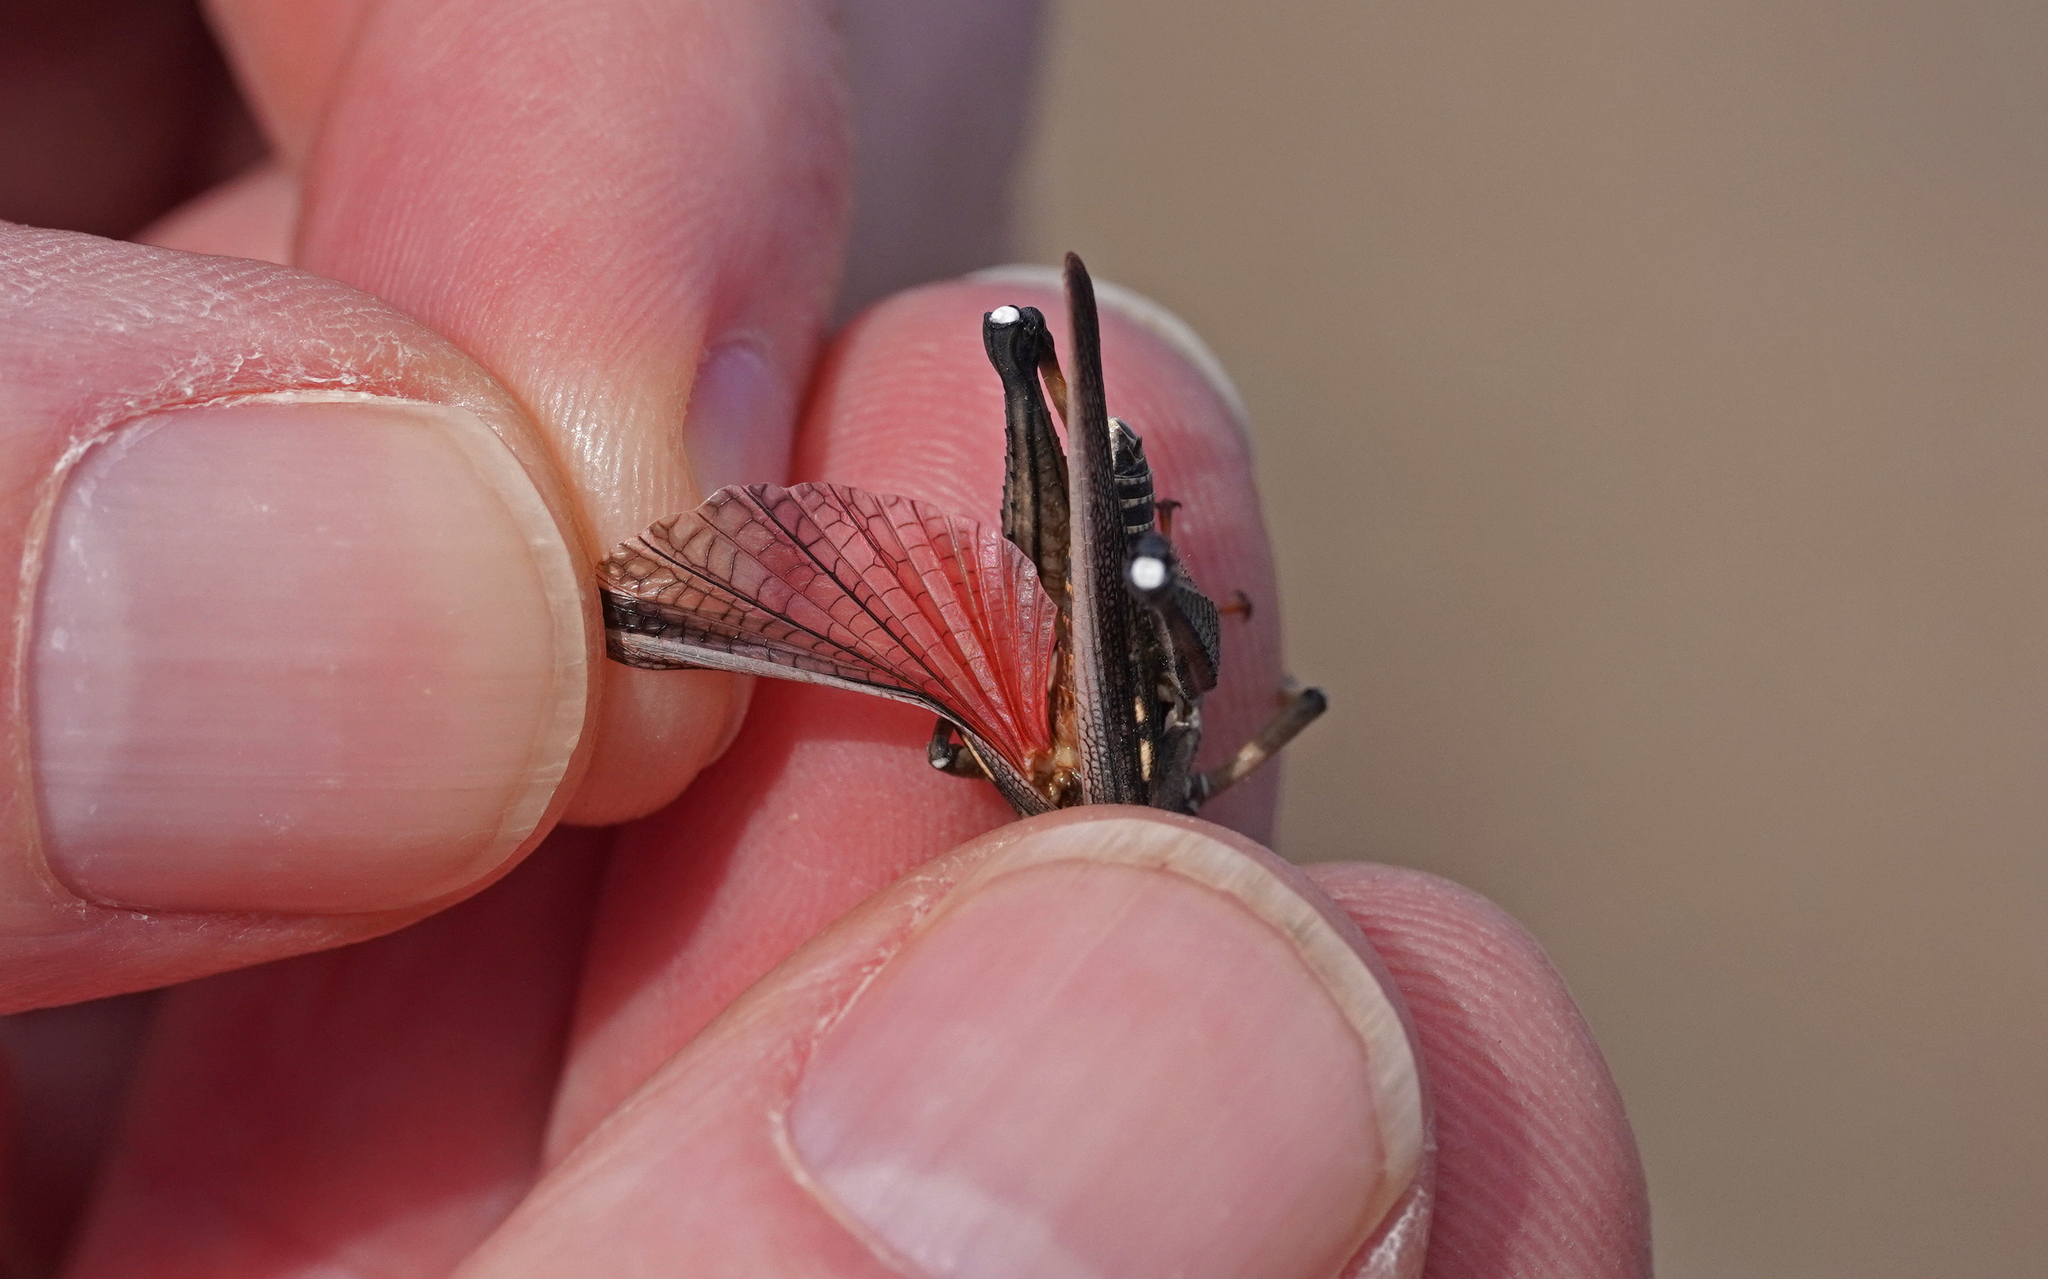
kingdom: Animalia
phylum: Arthropoda
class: Insecta
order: Orthoptera
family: Dericorythidae
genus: Dericorys
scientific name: Dericorys lobata
